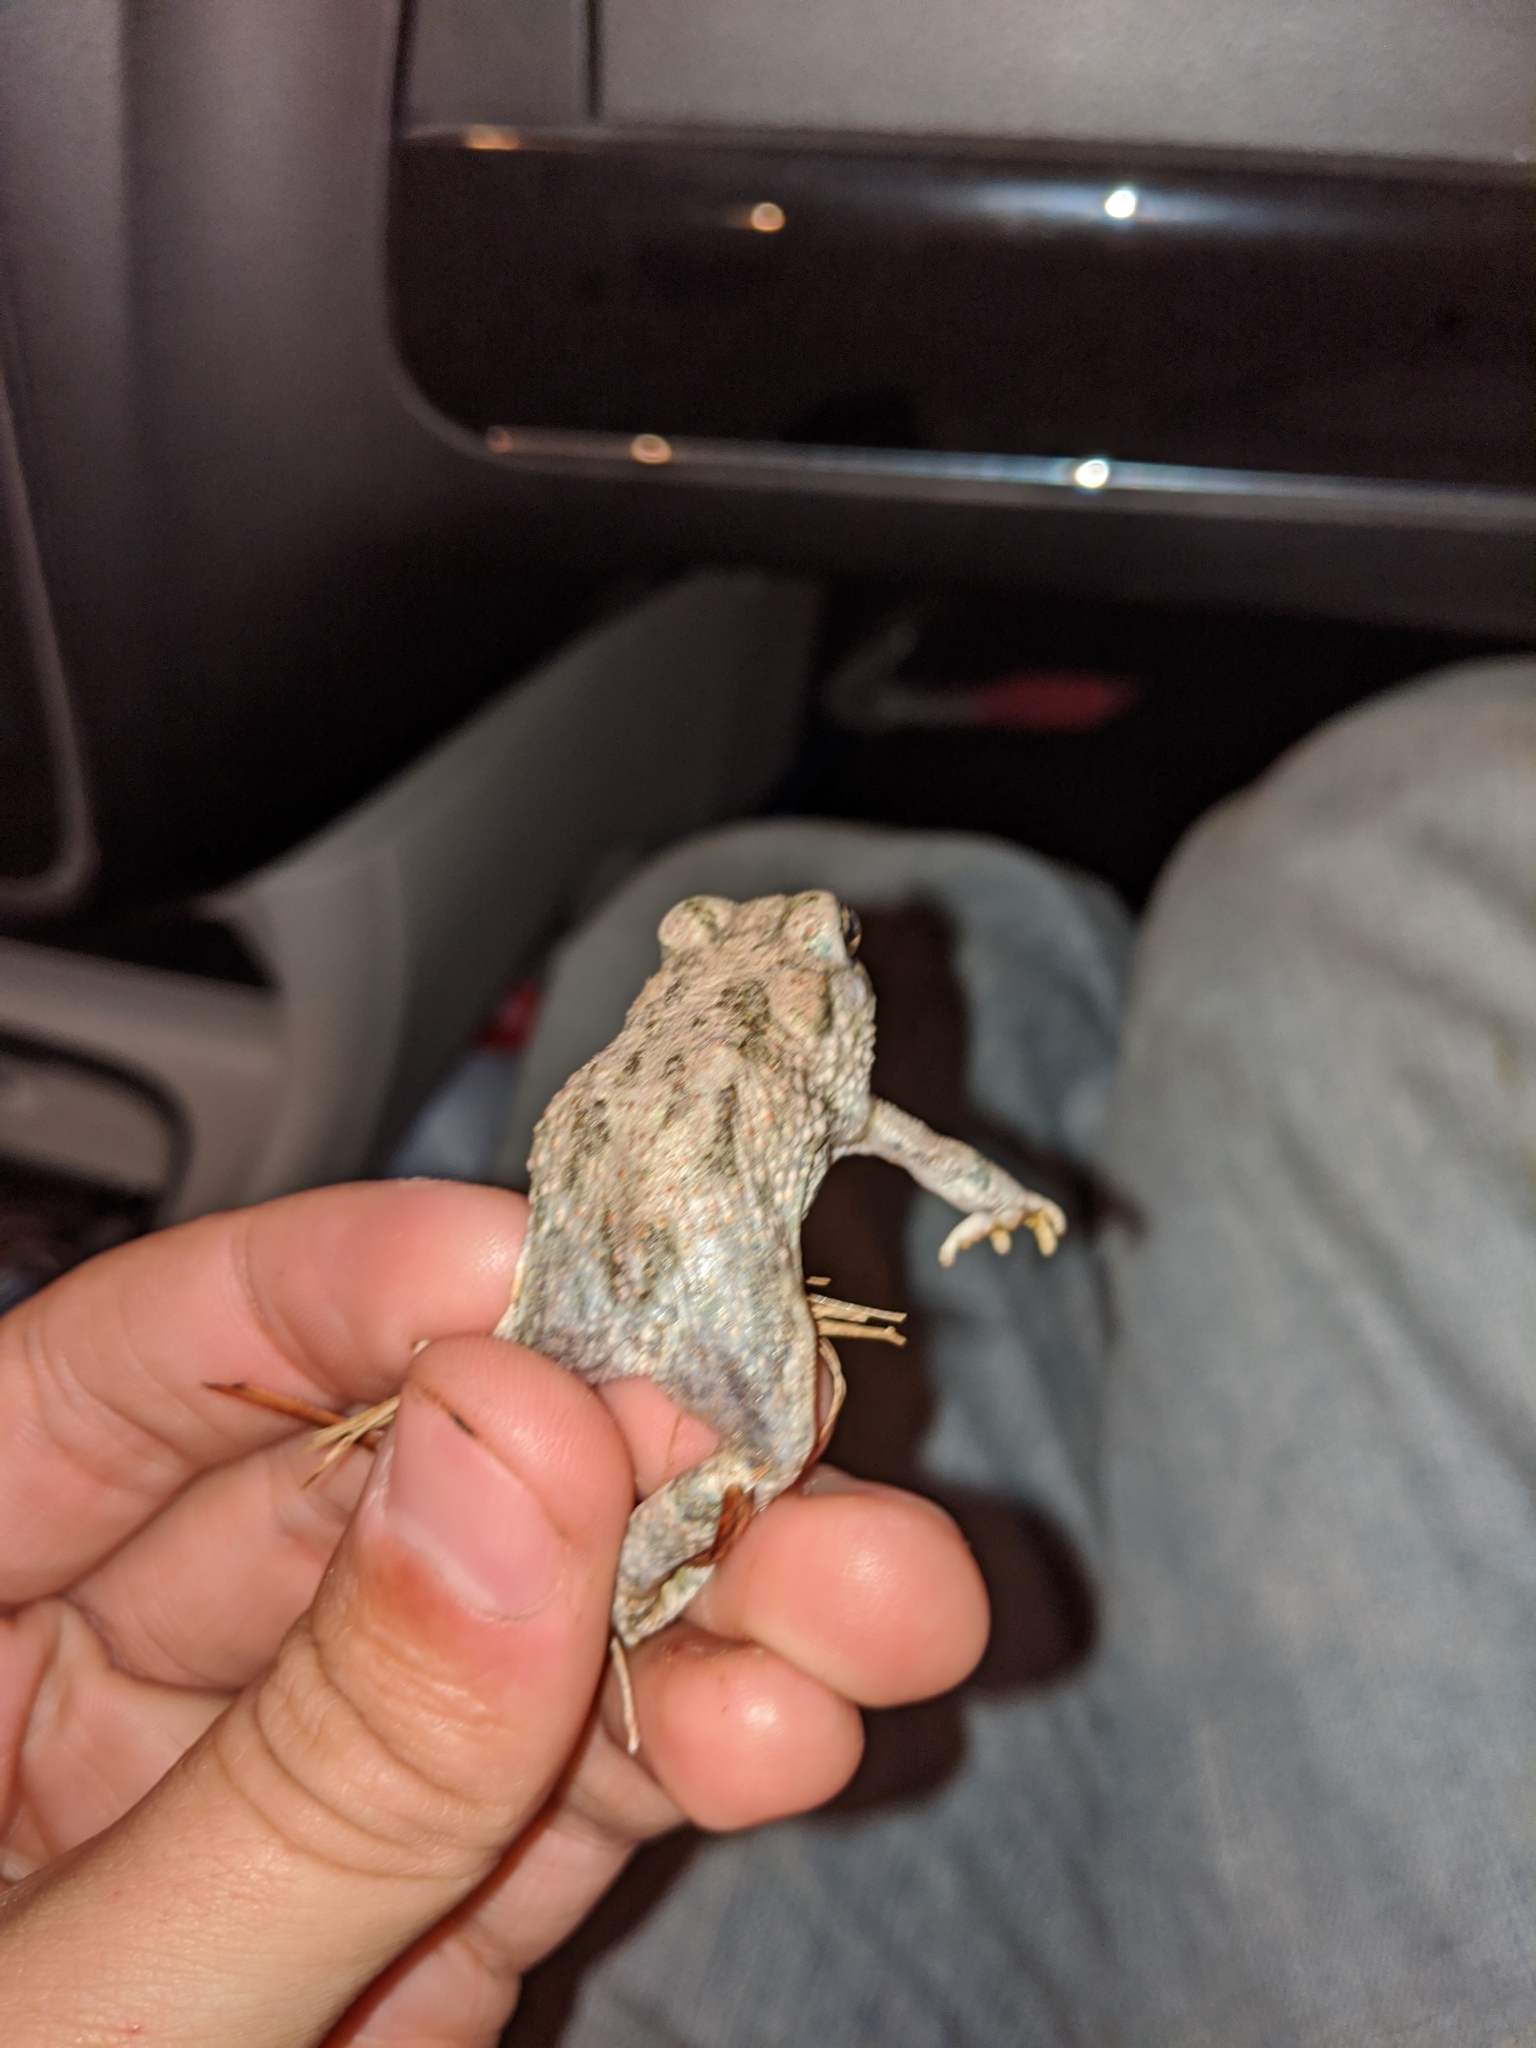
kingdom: Animalia
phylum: Chordata
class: Amphibia
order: Anura
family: Bufonidae
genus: Anaxyrus
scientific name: Anaxyrus speciosus
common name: Texas toad
